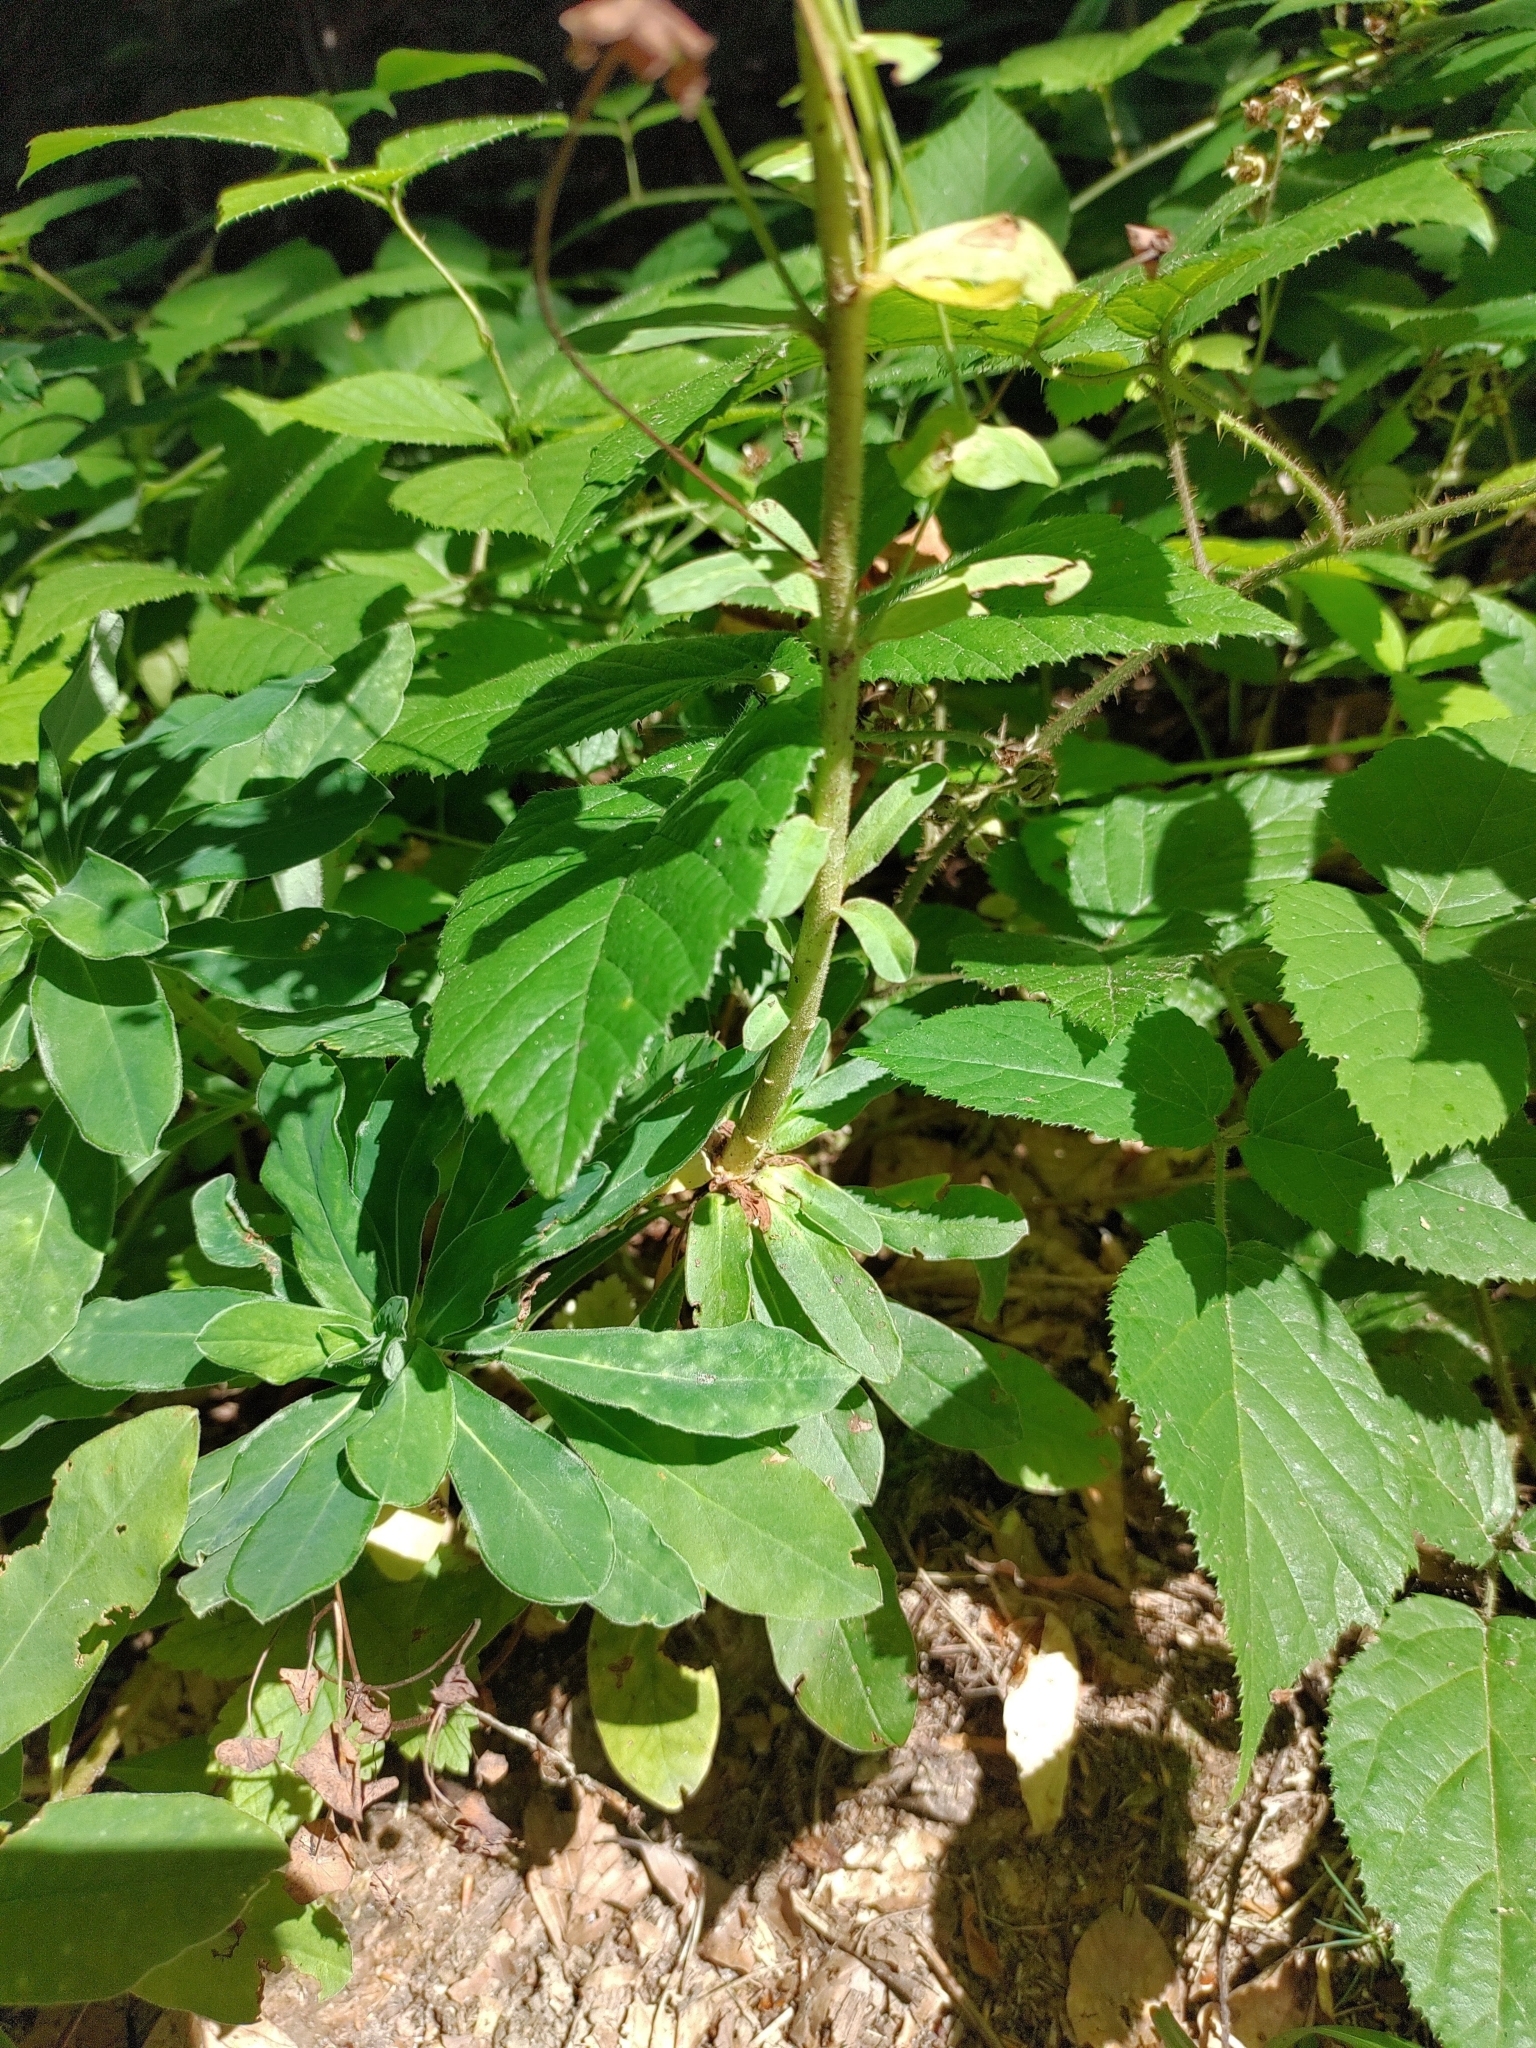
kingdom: Plantae
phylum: Tracheophyta
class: Magnoliopsida
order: Malpighiales
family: Euphorbiaceae
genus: Euphorbia
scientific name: Euphorbia amygdaloides
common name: Wood spurge
